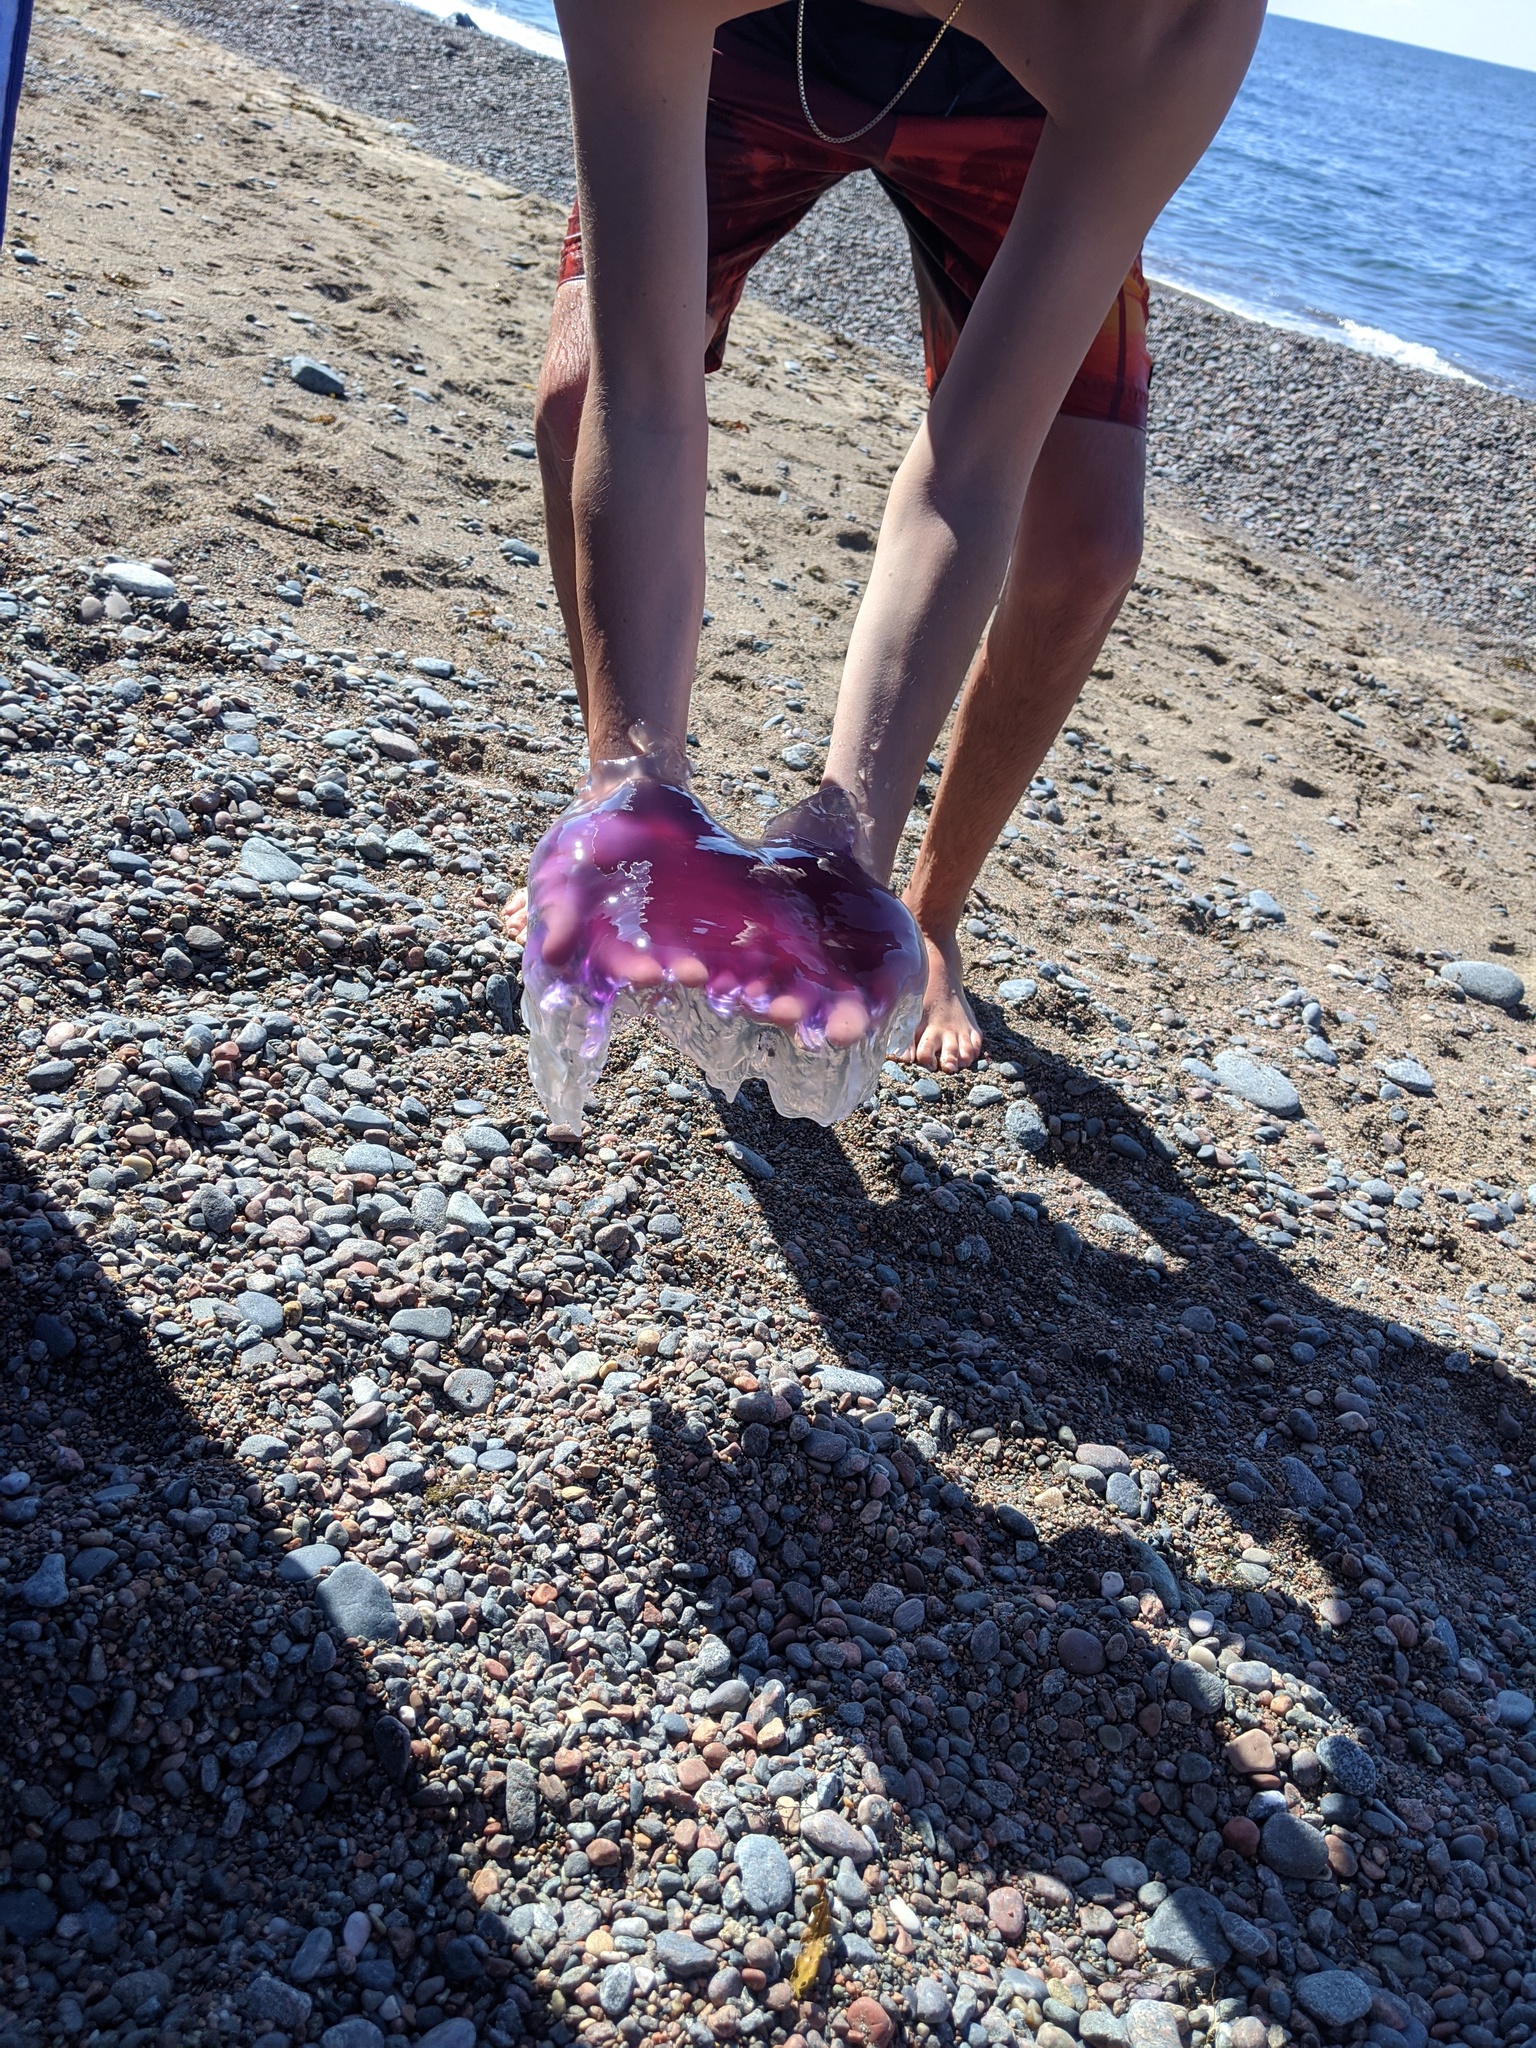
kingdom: Animalia
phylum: Cnidaria
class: Scyphozoa
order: Semaeostomeae
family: Cyaneidae
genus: Cyanea
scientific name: Cyanea
